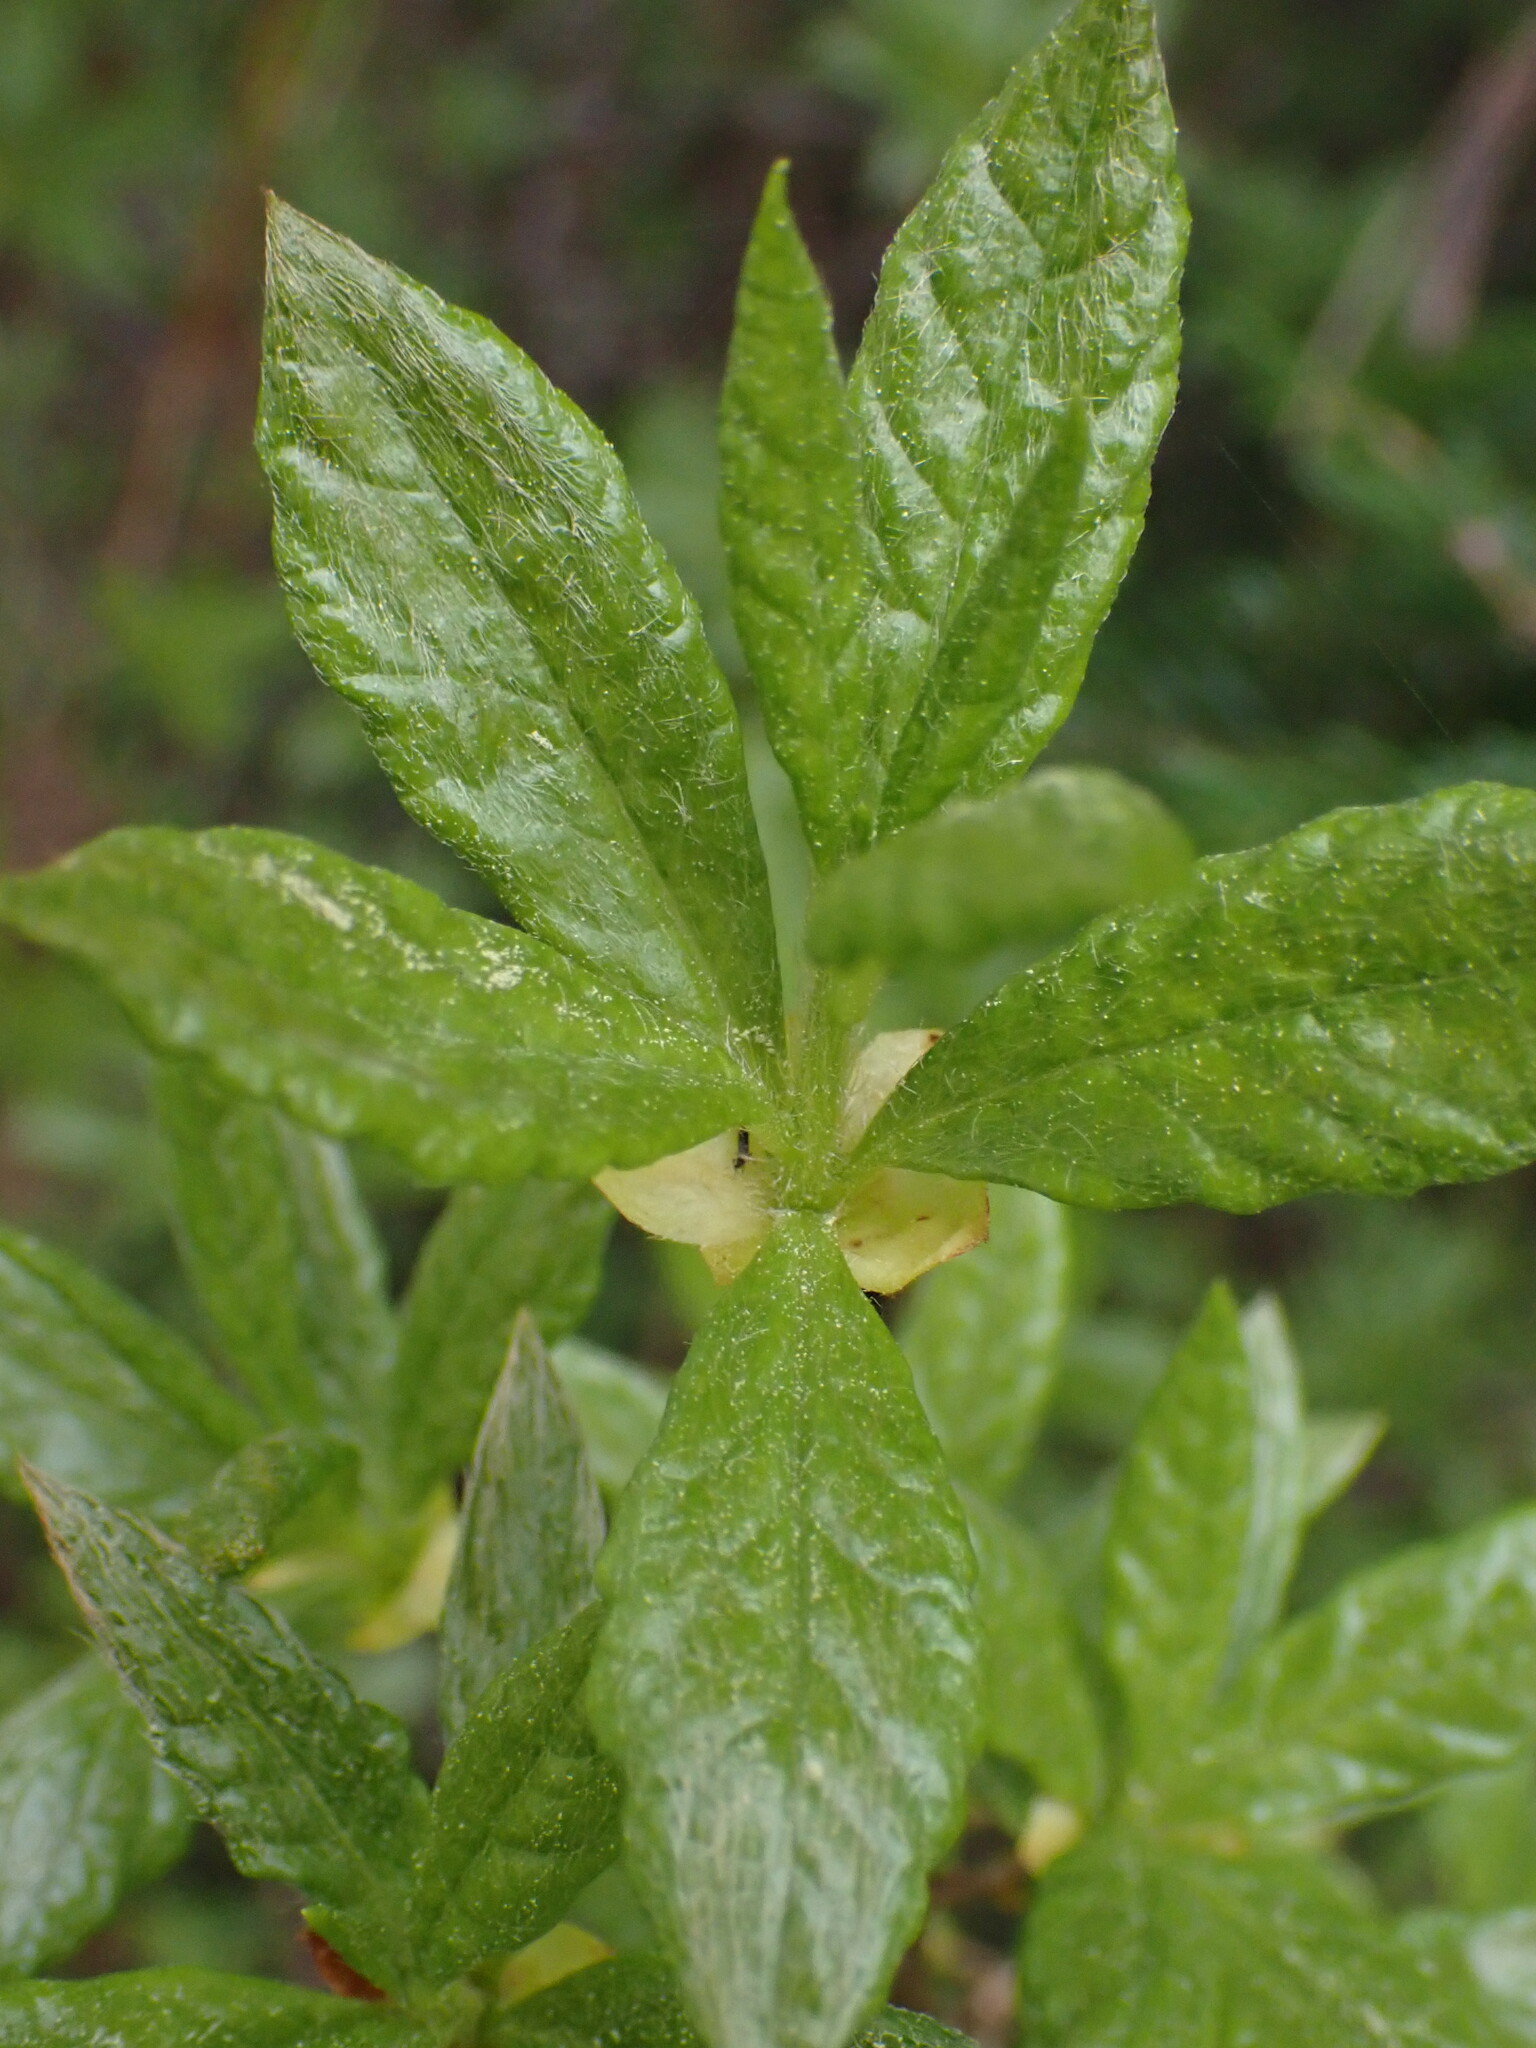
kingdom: Plantae
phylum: Tracheophyta
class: Magnoliopsida
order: Ericales
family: Ericaceae
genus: Rhododendron
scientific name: Rhododendron menziesii
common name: Pacific menziesia
